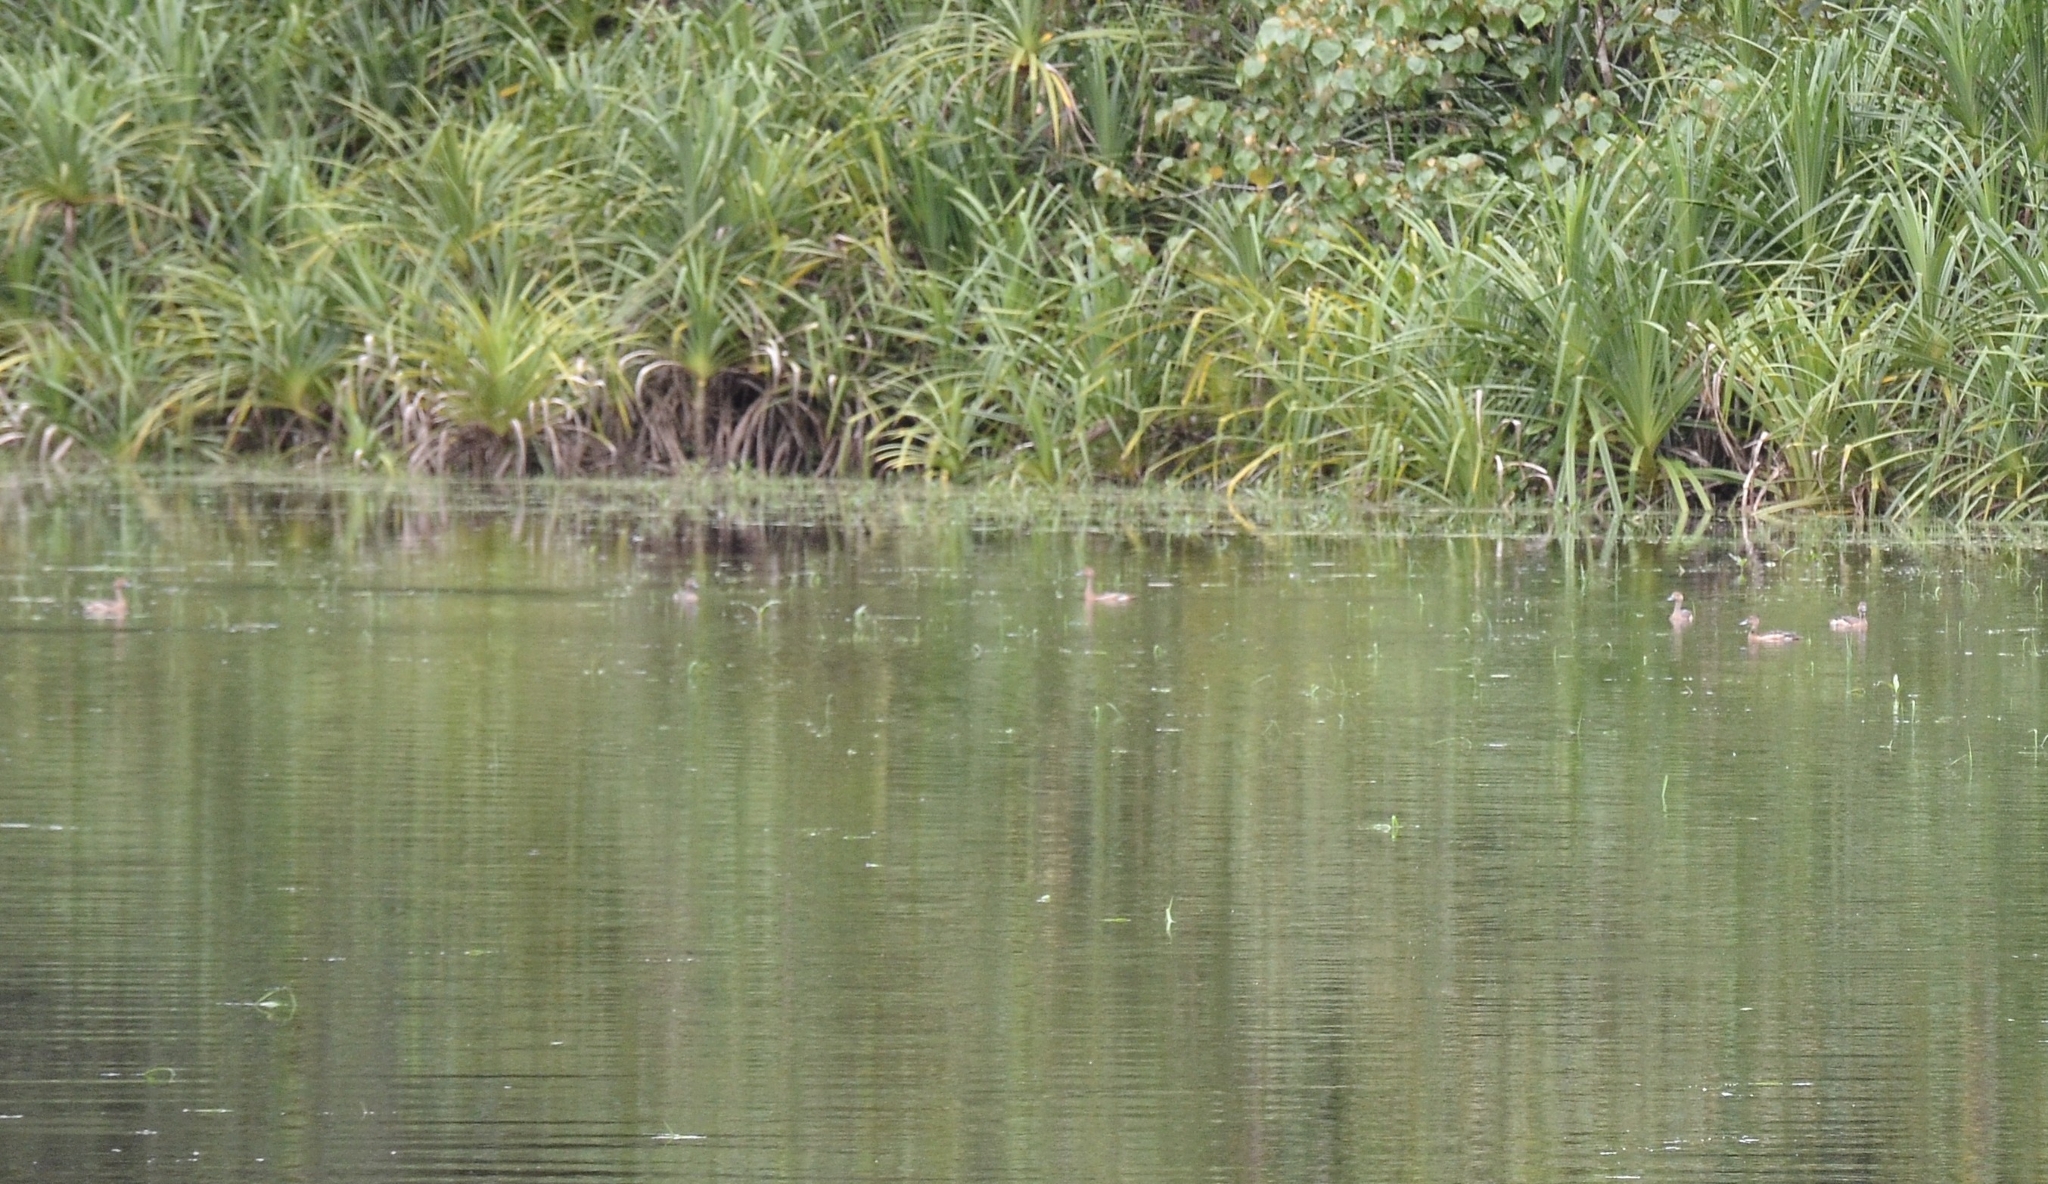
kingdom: Animalia
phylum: Chordata
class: Aves
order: Anseriformes
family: Anatidae
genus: Dendrocygna
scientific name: Dendrocygna javanica
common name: Lesser whistling-duck
